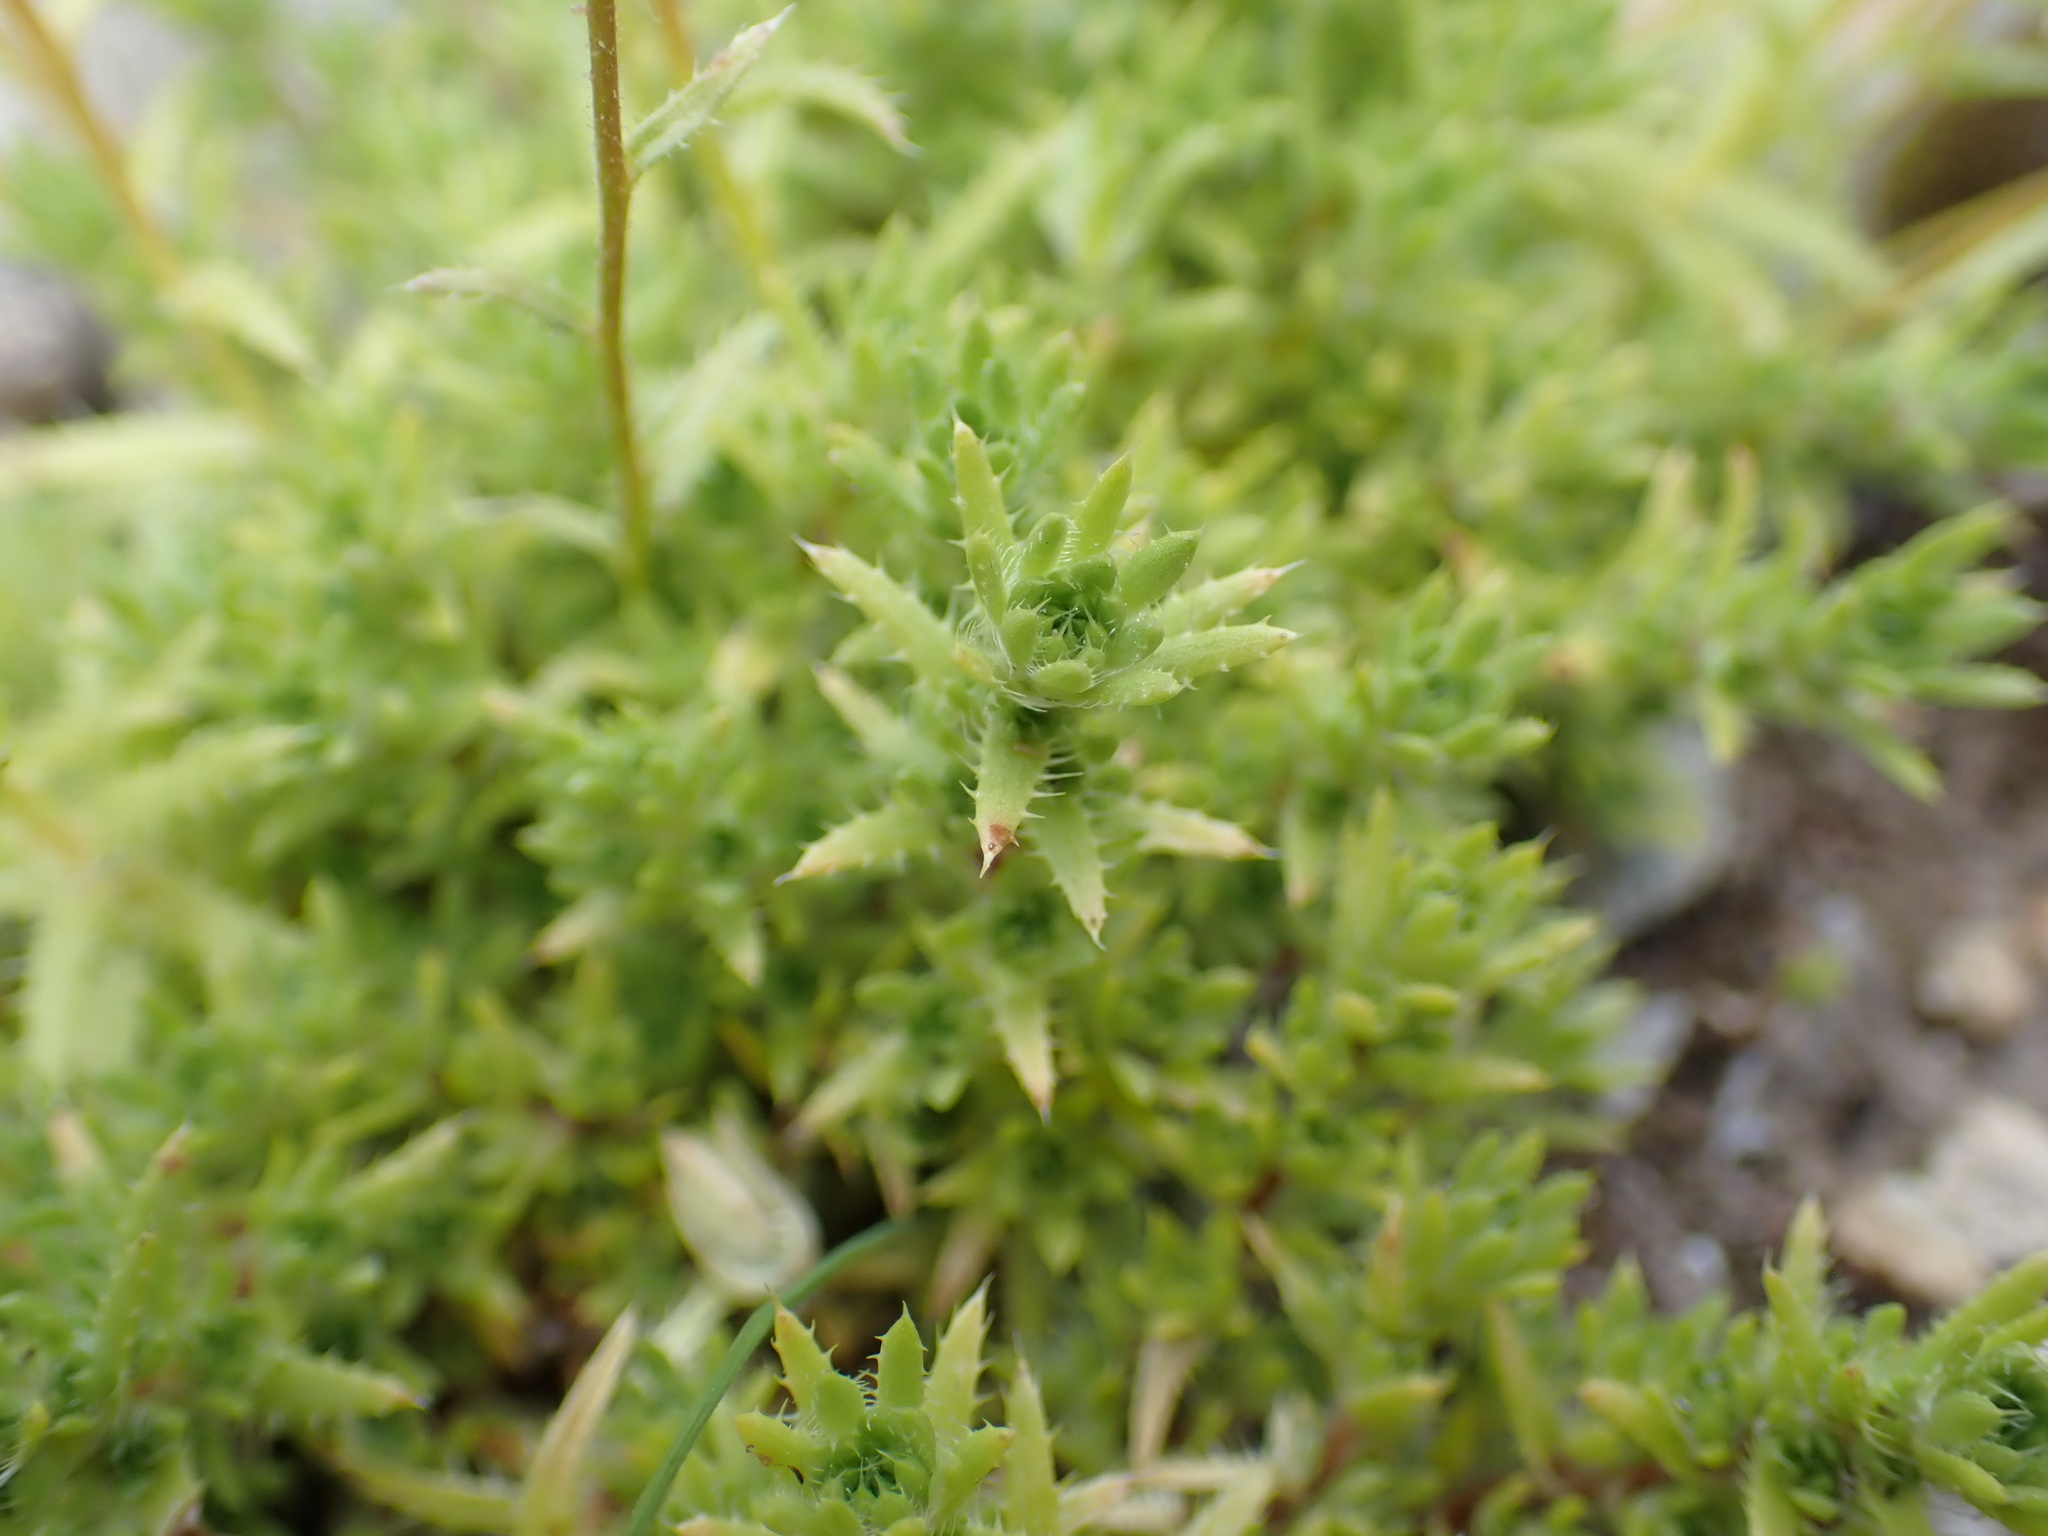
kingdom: Plantae
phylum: Tracheophyta
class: Magnoliopsida
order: Saxifragales
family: Saxifragaceae
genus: Saxifraga
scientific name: Saxifraga aspera
